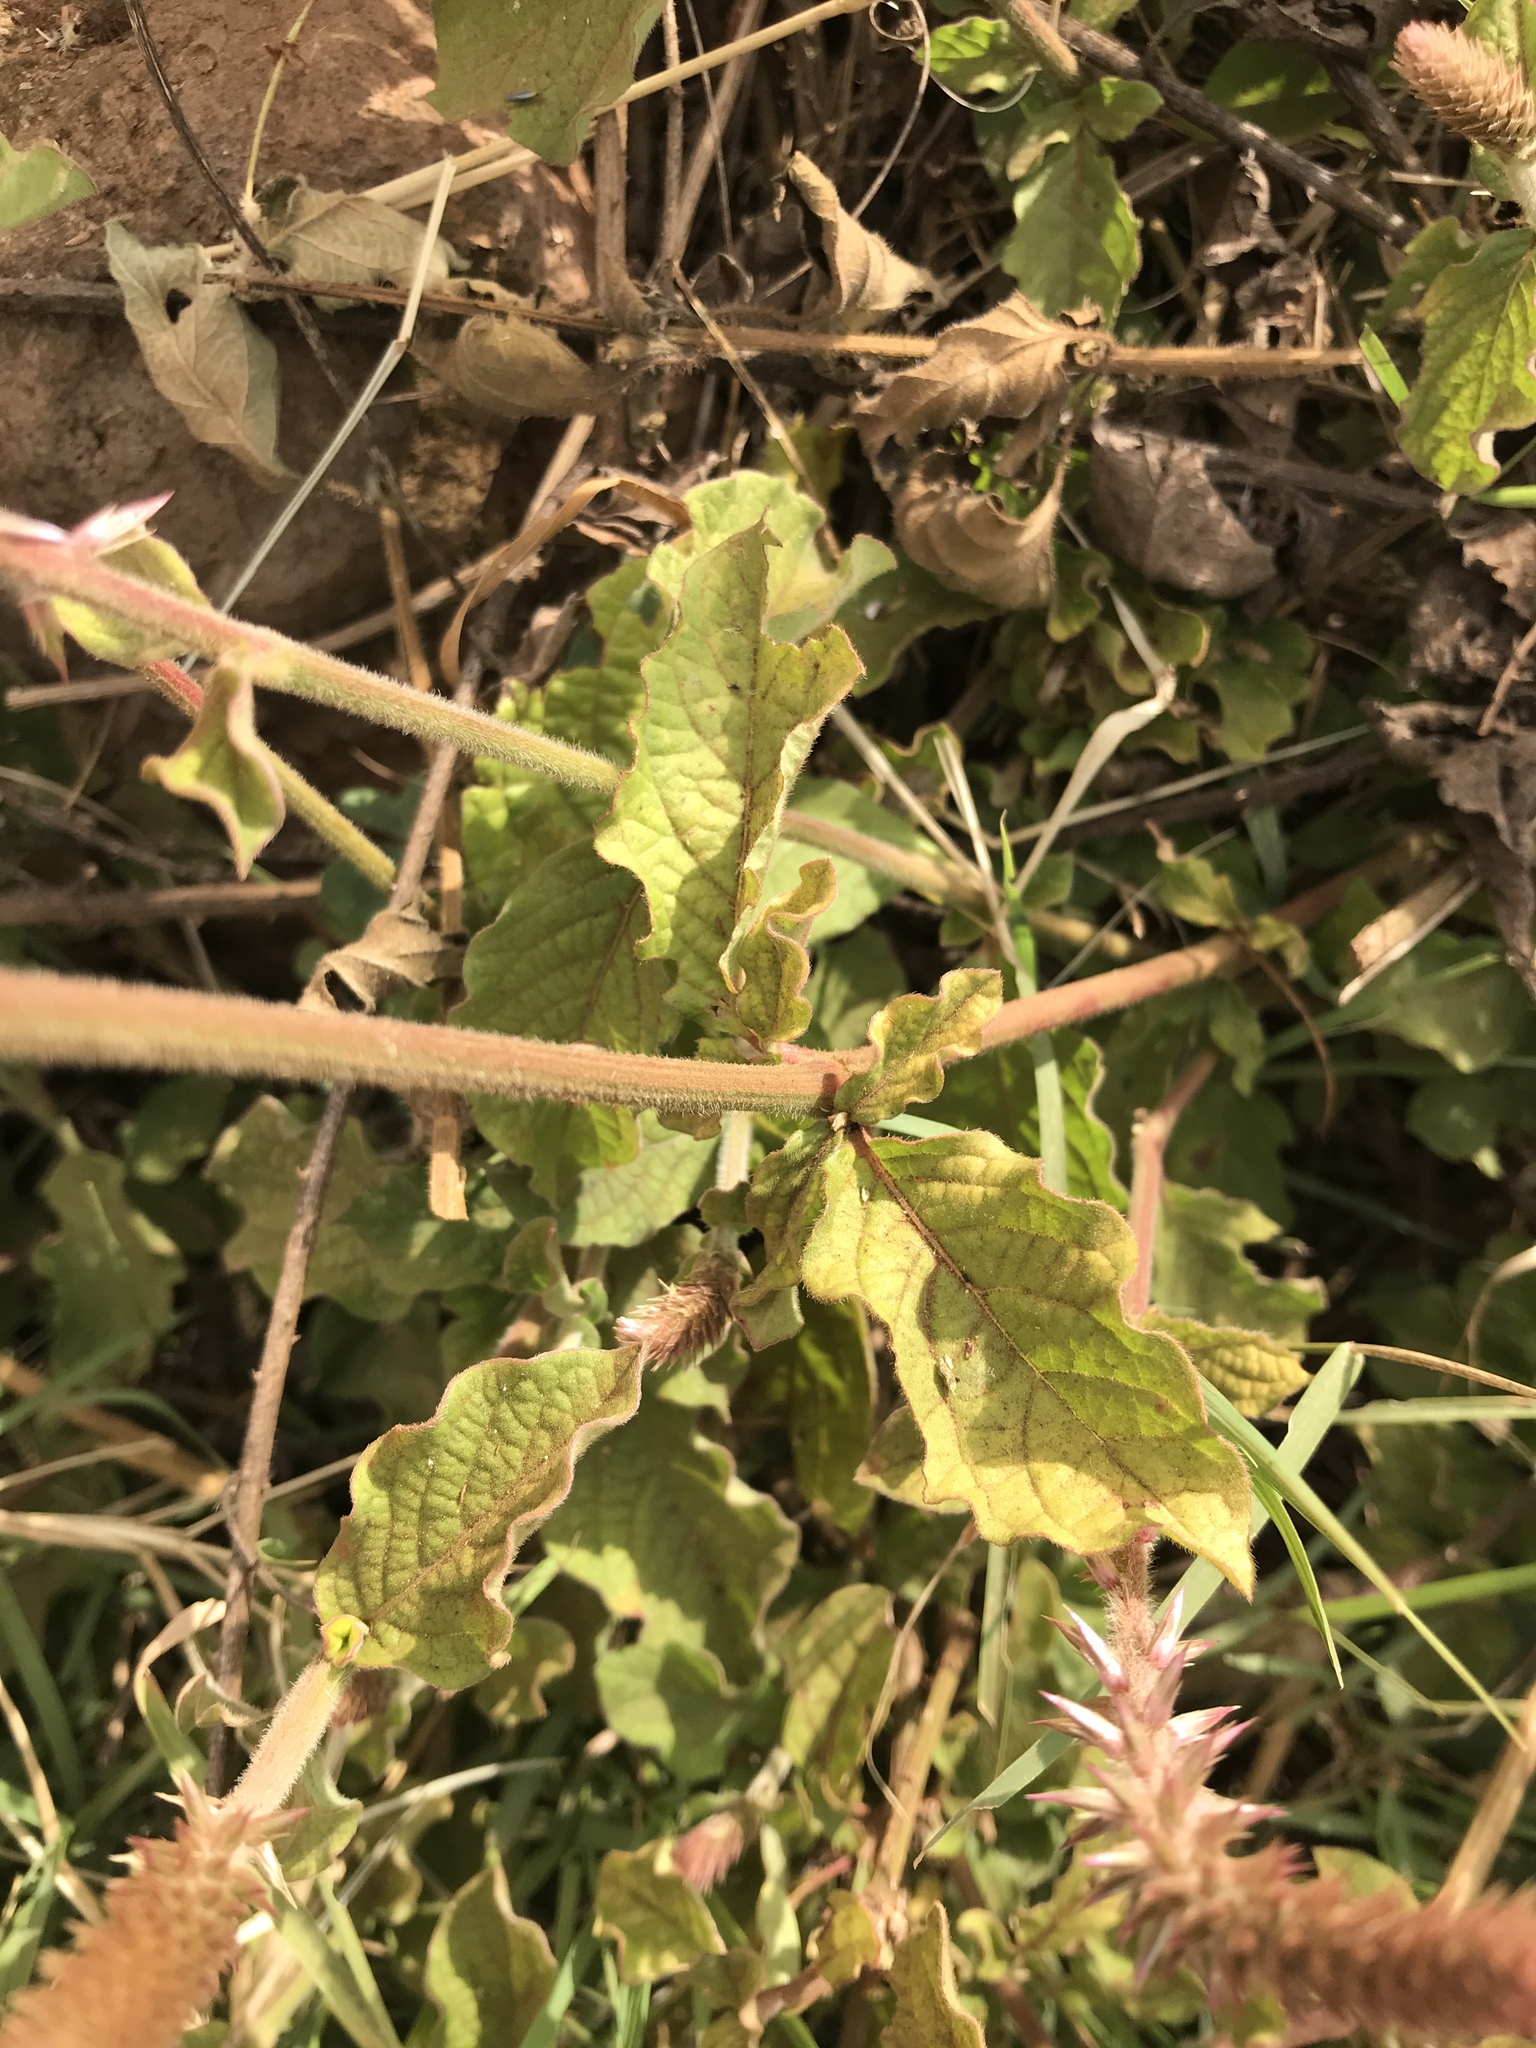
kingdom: Plantae
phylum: Tracheophyta
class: Magnoliopsida
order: Caryophyllales
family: Amaranthaceae
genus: Achyranthes
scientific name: Achyranthes aspera
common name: Devil's horsewhip
